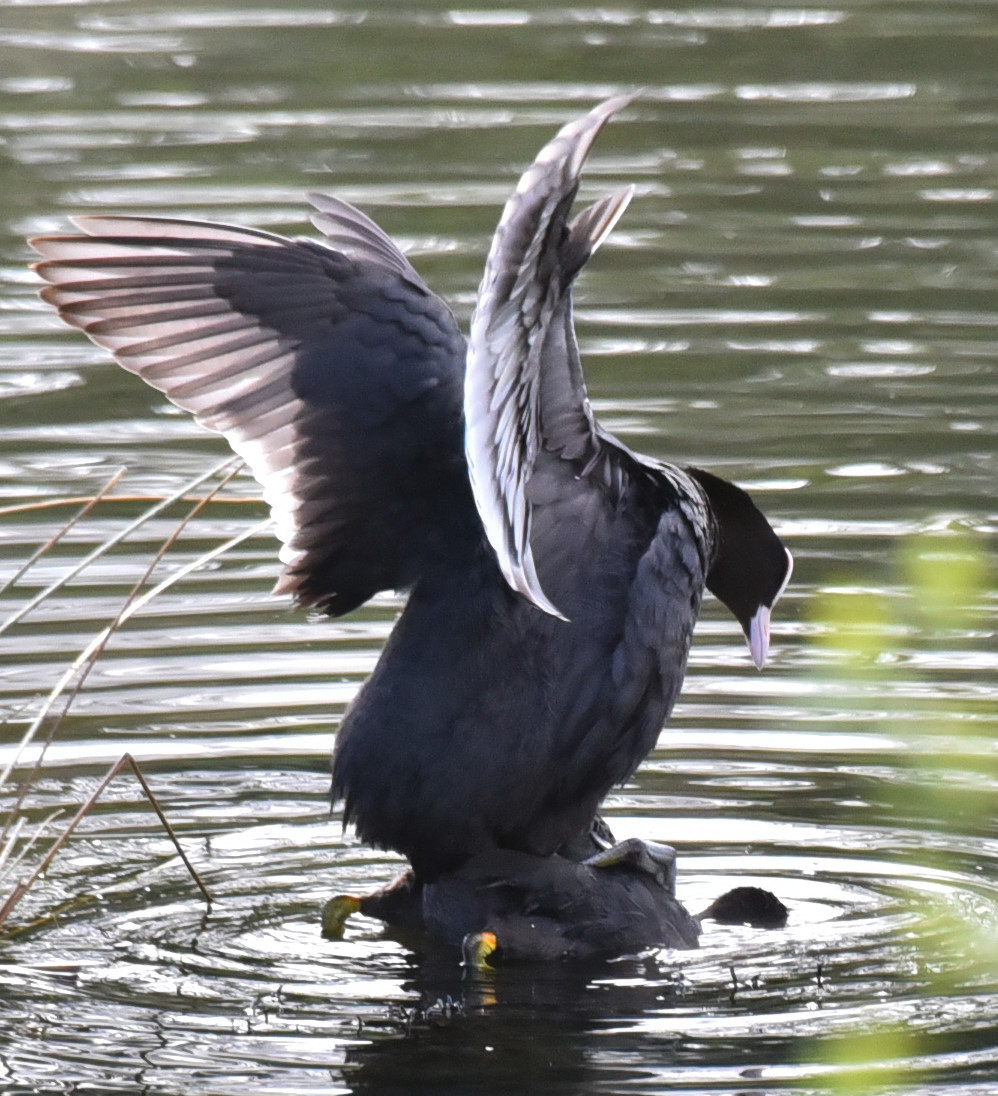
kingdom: Animalia
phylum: Chordata
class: Aves
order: Gruiformes
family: Rallidae
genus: Fulica
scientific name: Fulica atra
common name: Eurasian coot
